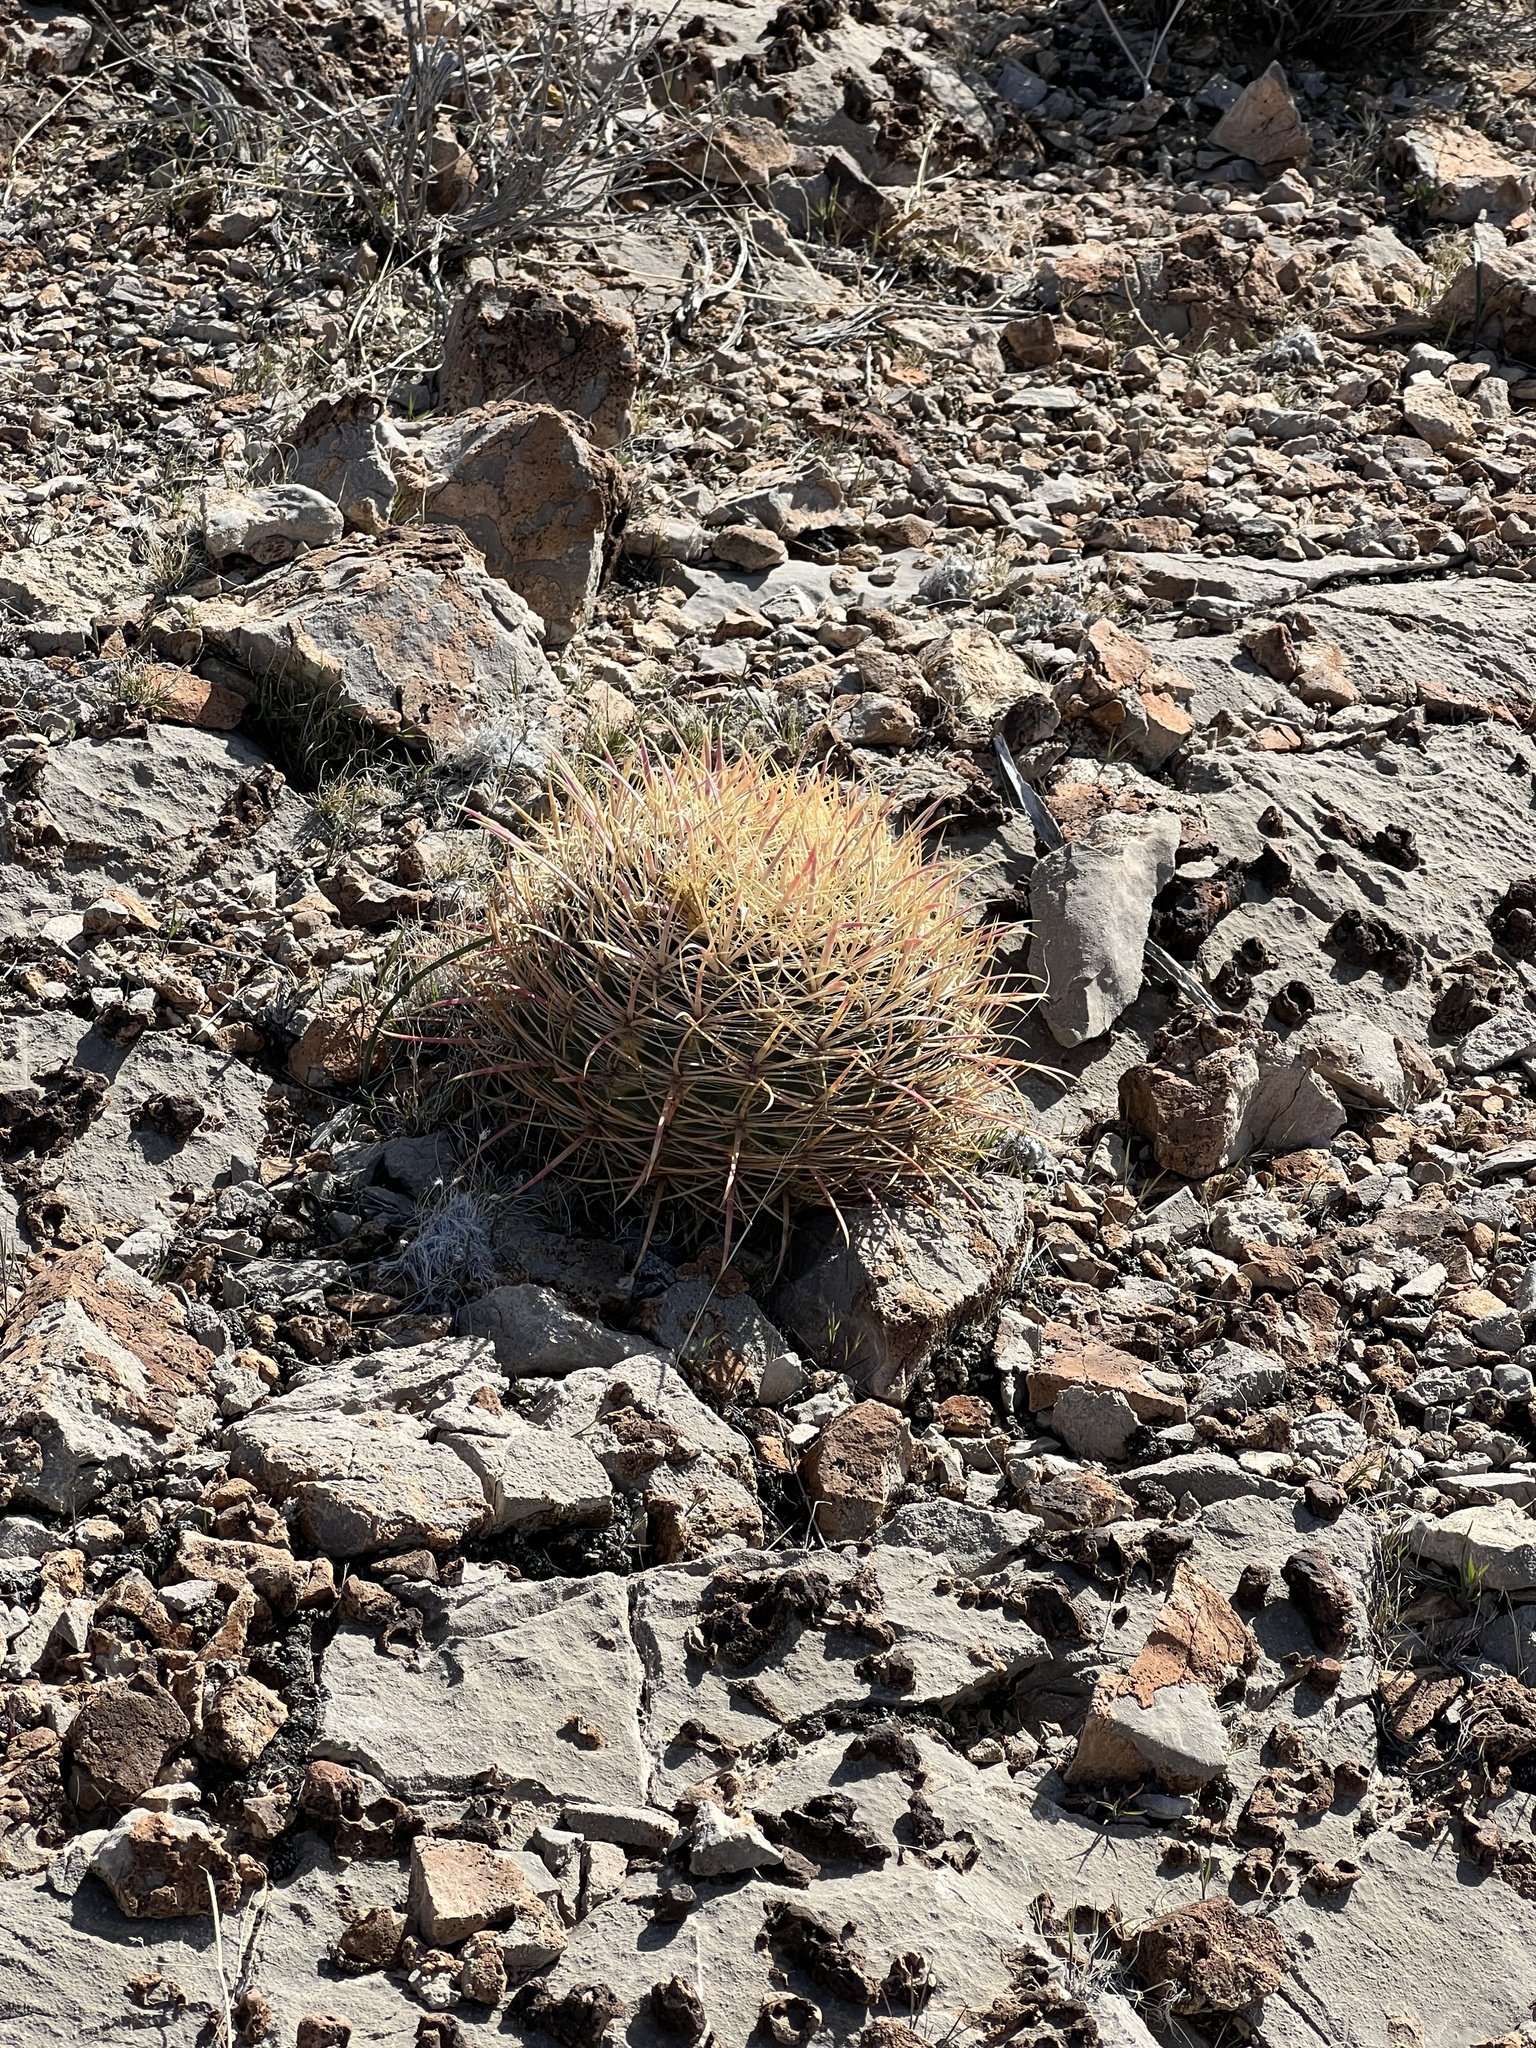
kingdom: Plantae
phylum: Tracheophyta
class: Magnoliopsida
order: Caryophyllales
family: Cactaceae
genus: Ferocactus
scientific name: Ferocactus cylindraceus
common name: California barrel cactus
